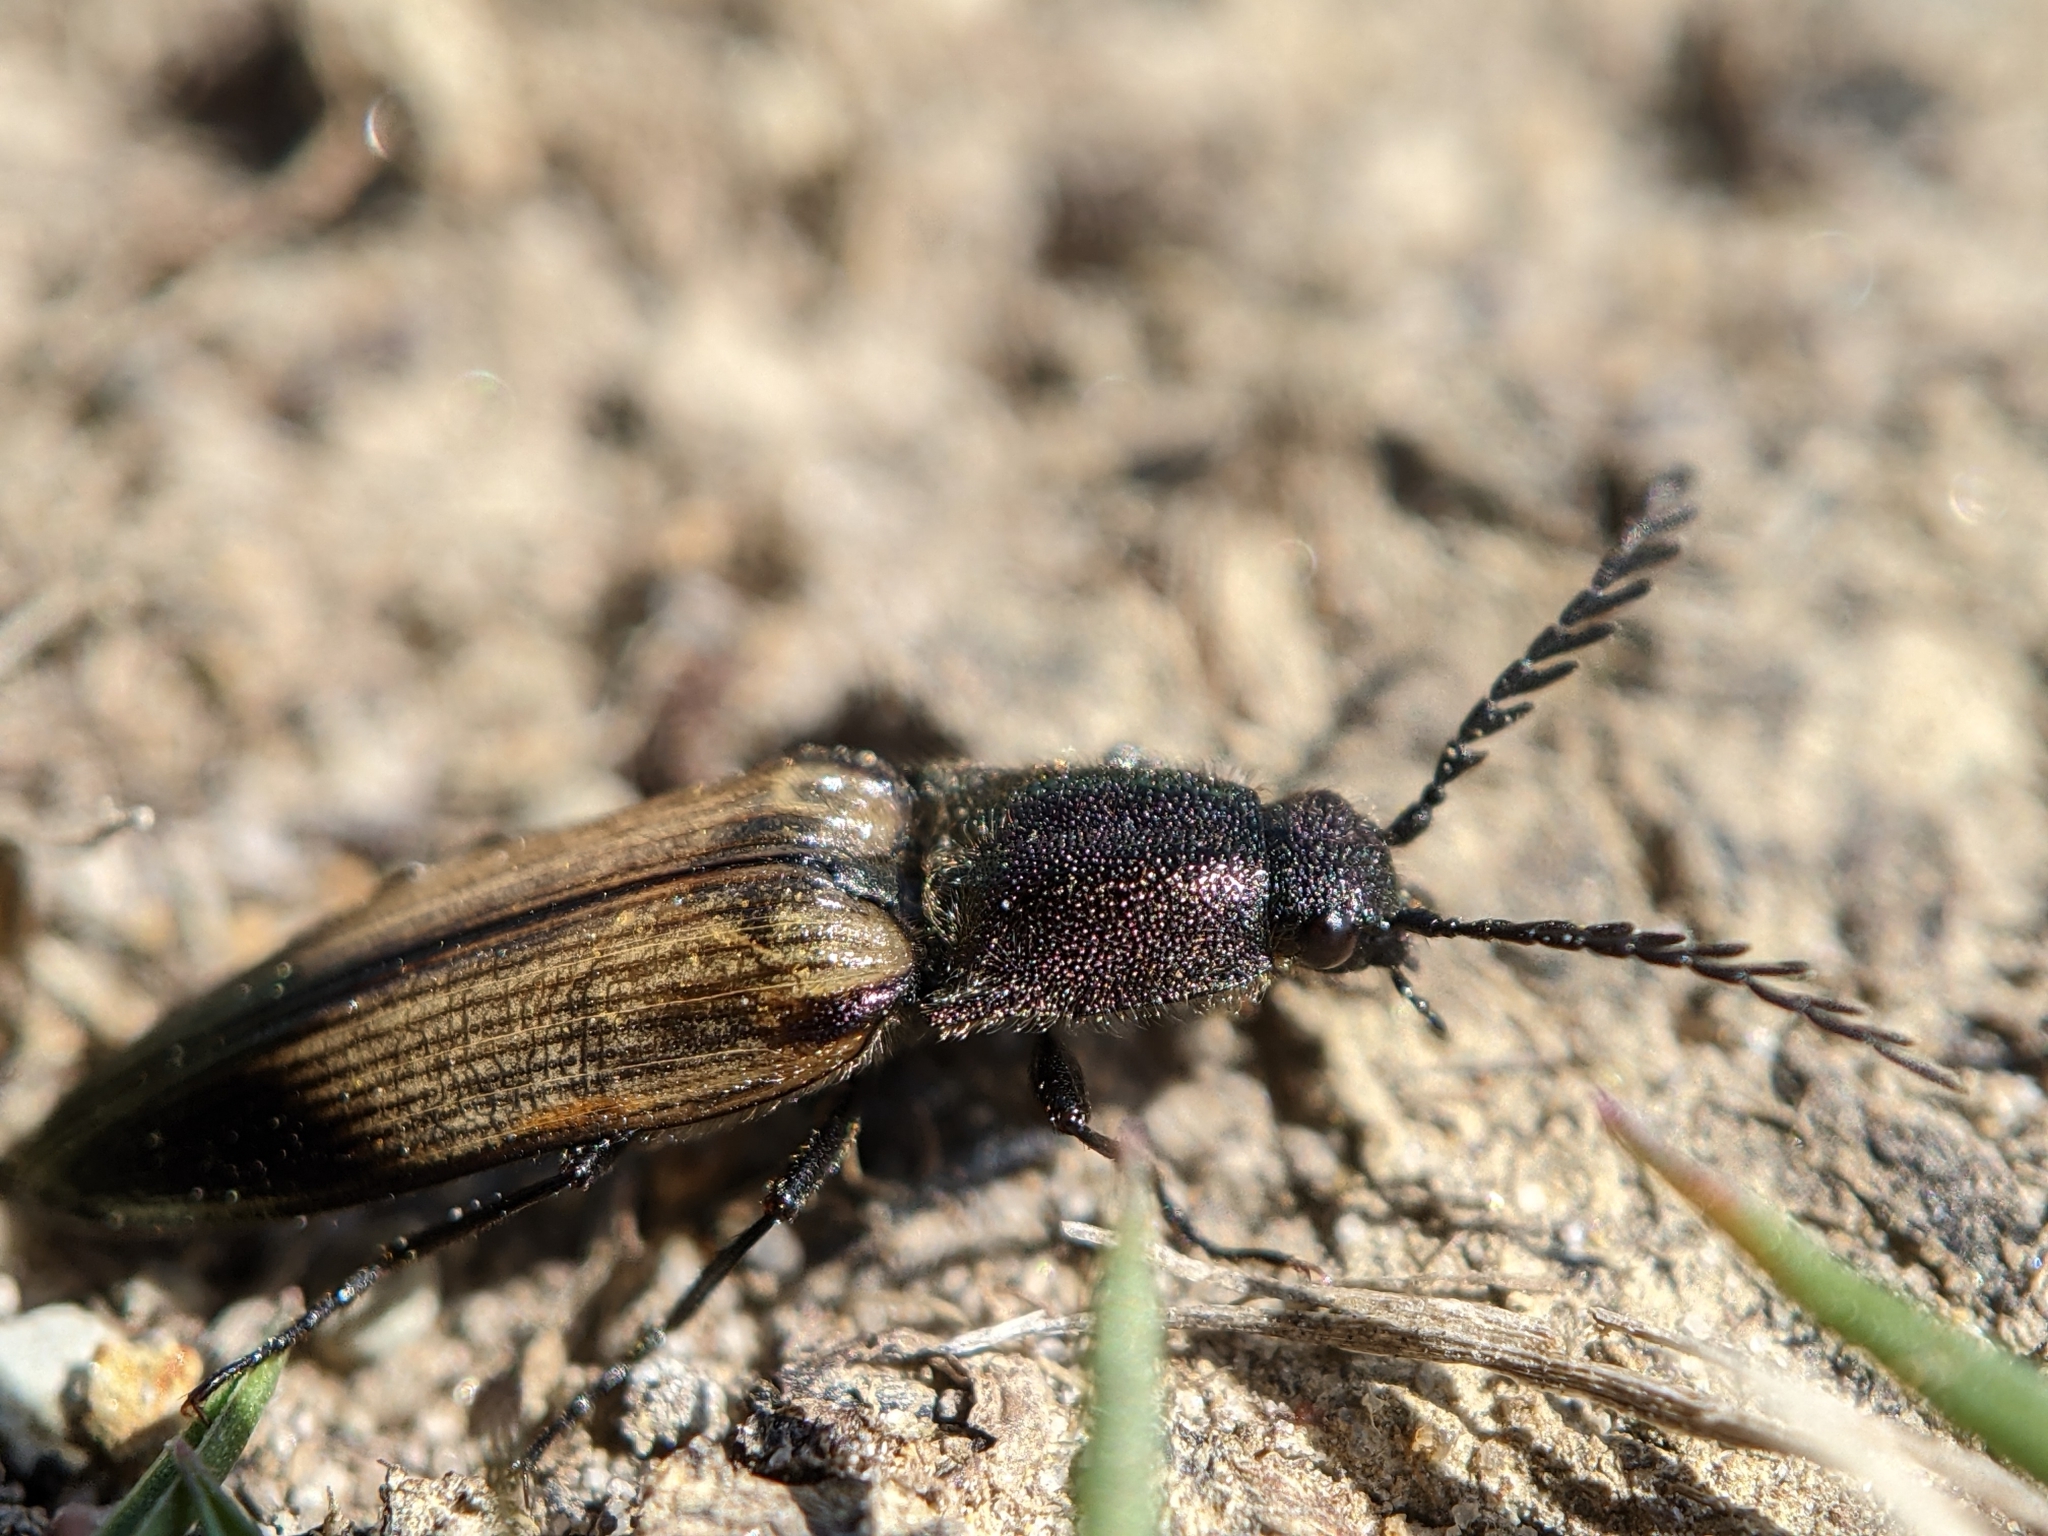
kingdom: Animalia
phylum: Arthropoda
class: Insecta
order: Coleoptera
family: Elateridae
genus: Ctenicera
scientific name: Ctenicera cuprea
